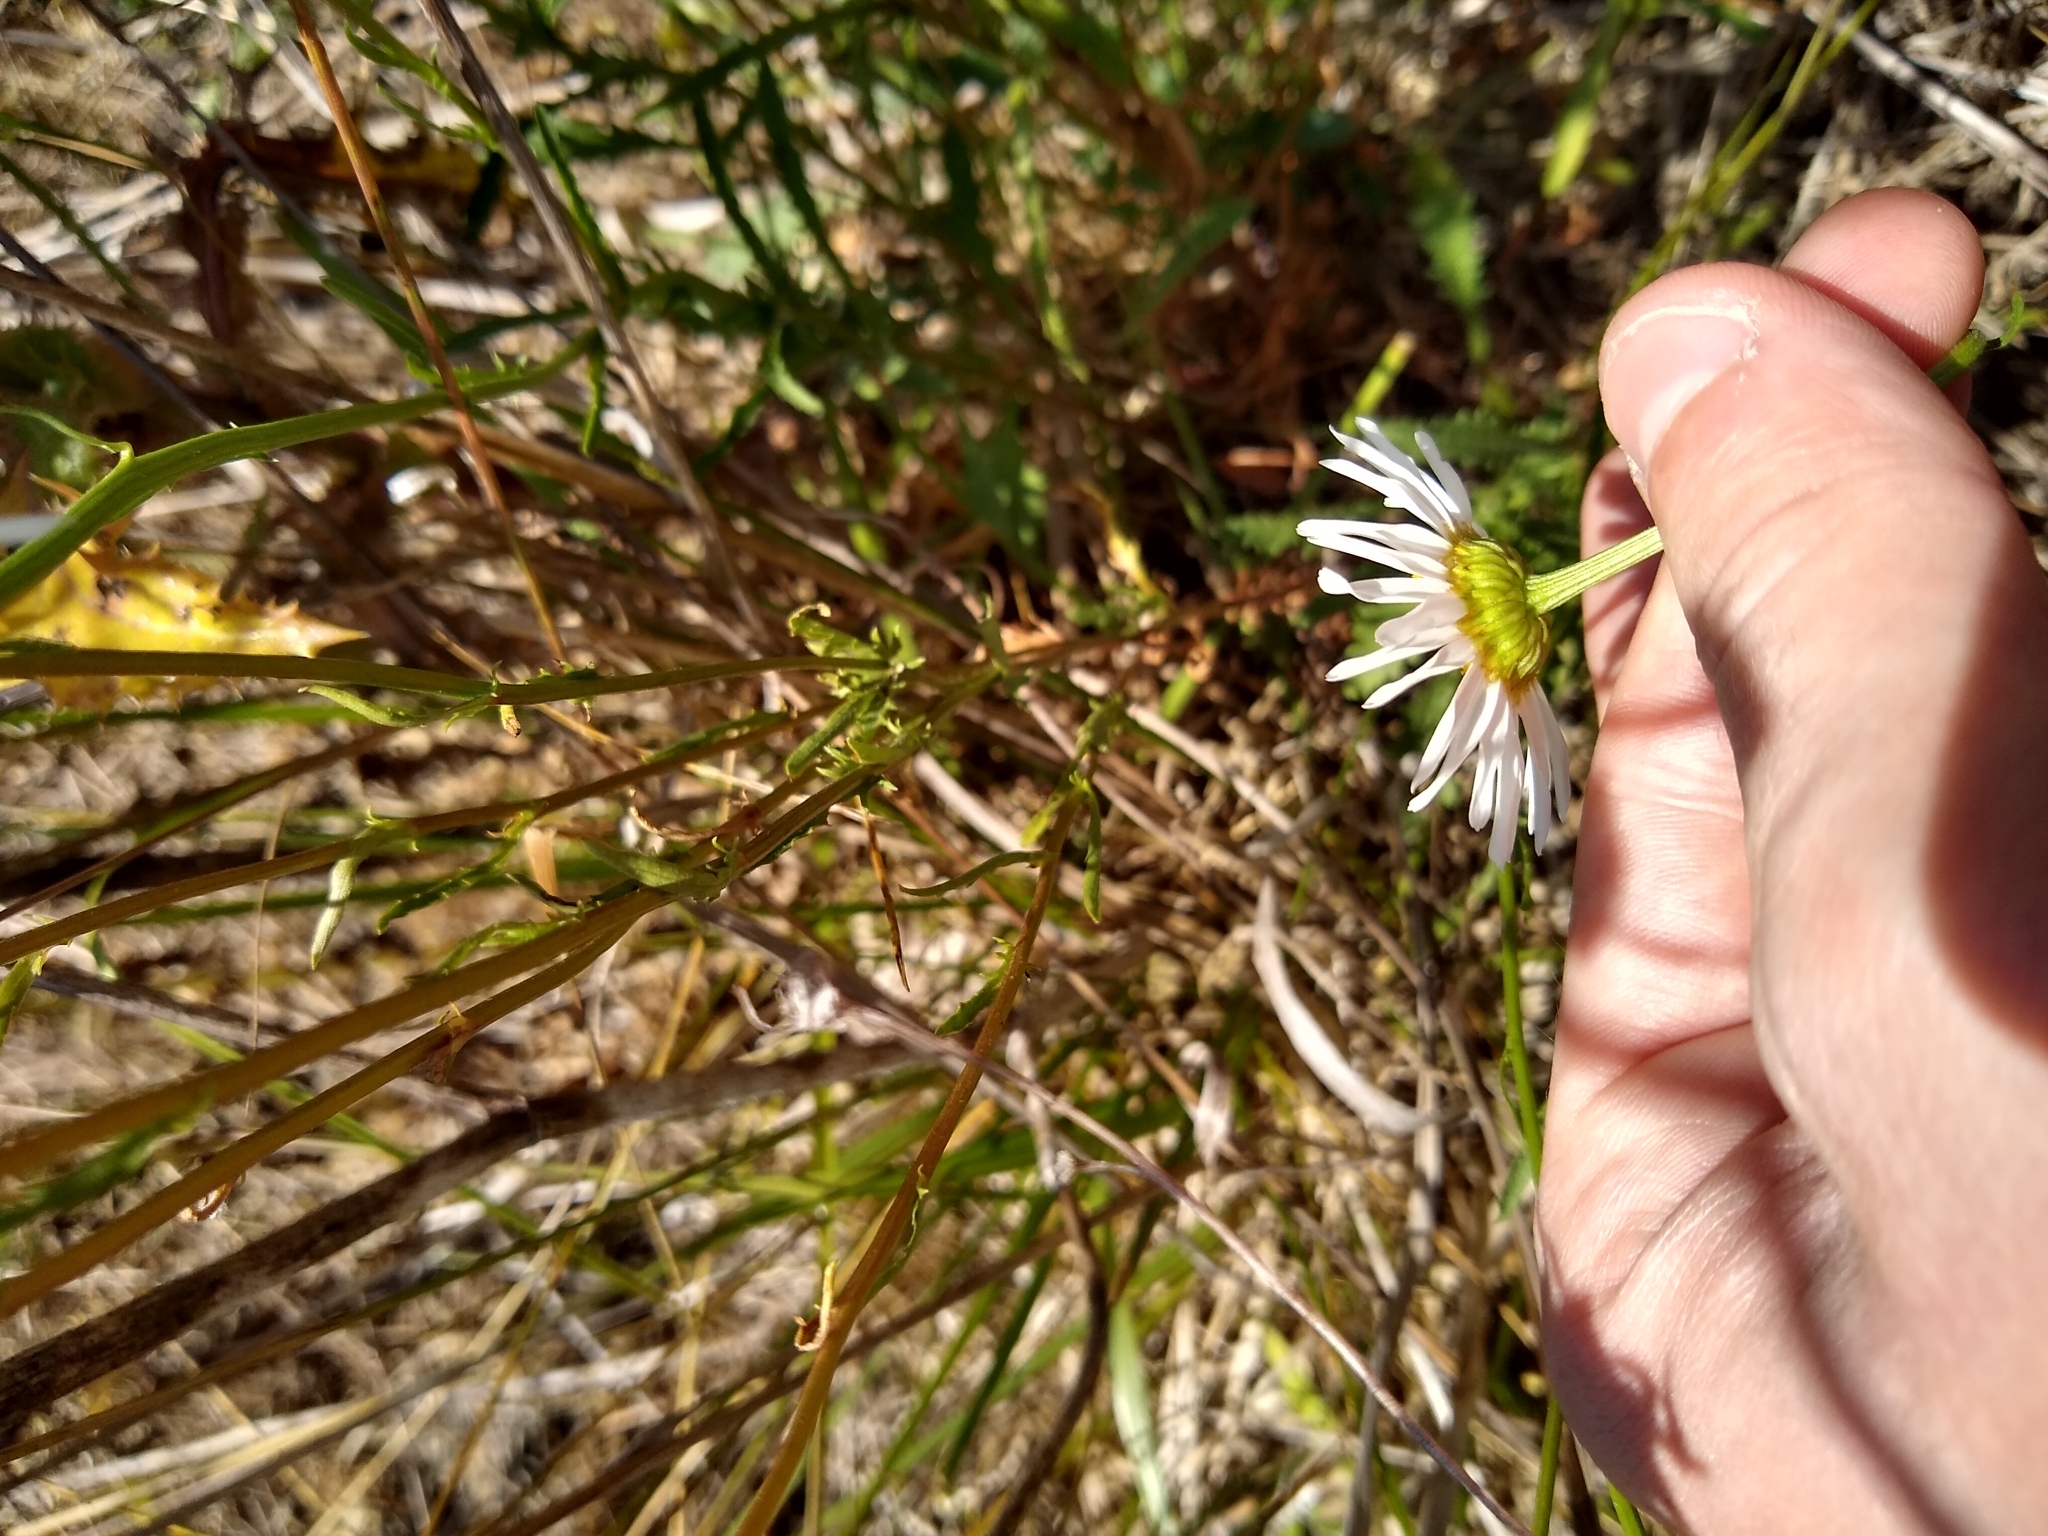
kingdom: Plantae
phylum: Tracheophyta
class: Magnoliopsida
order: Asterales
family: Asteraceae
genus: Leucanthemum
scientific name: Leucanthemum vulgare
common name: Oxeye daisy
